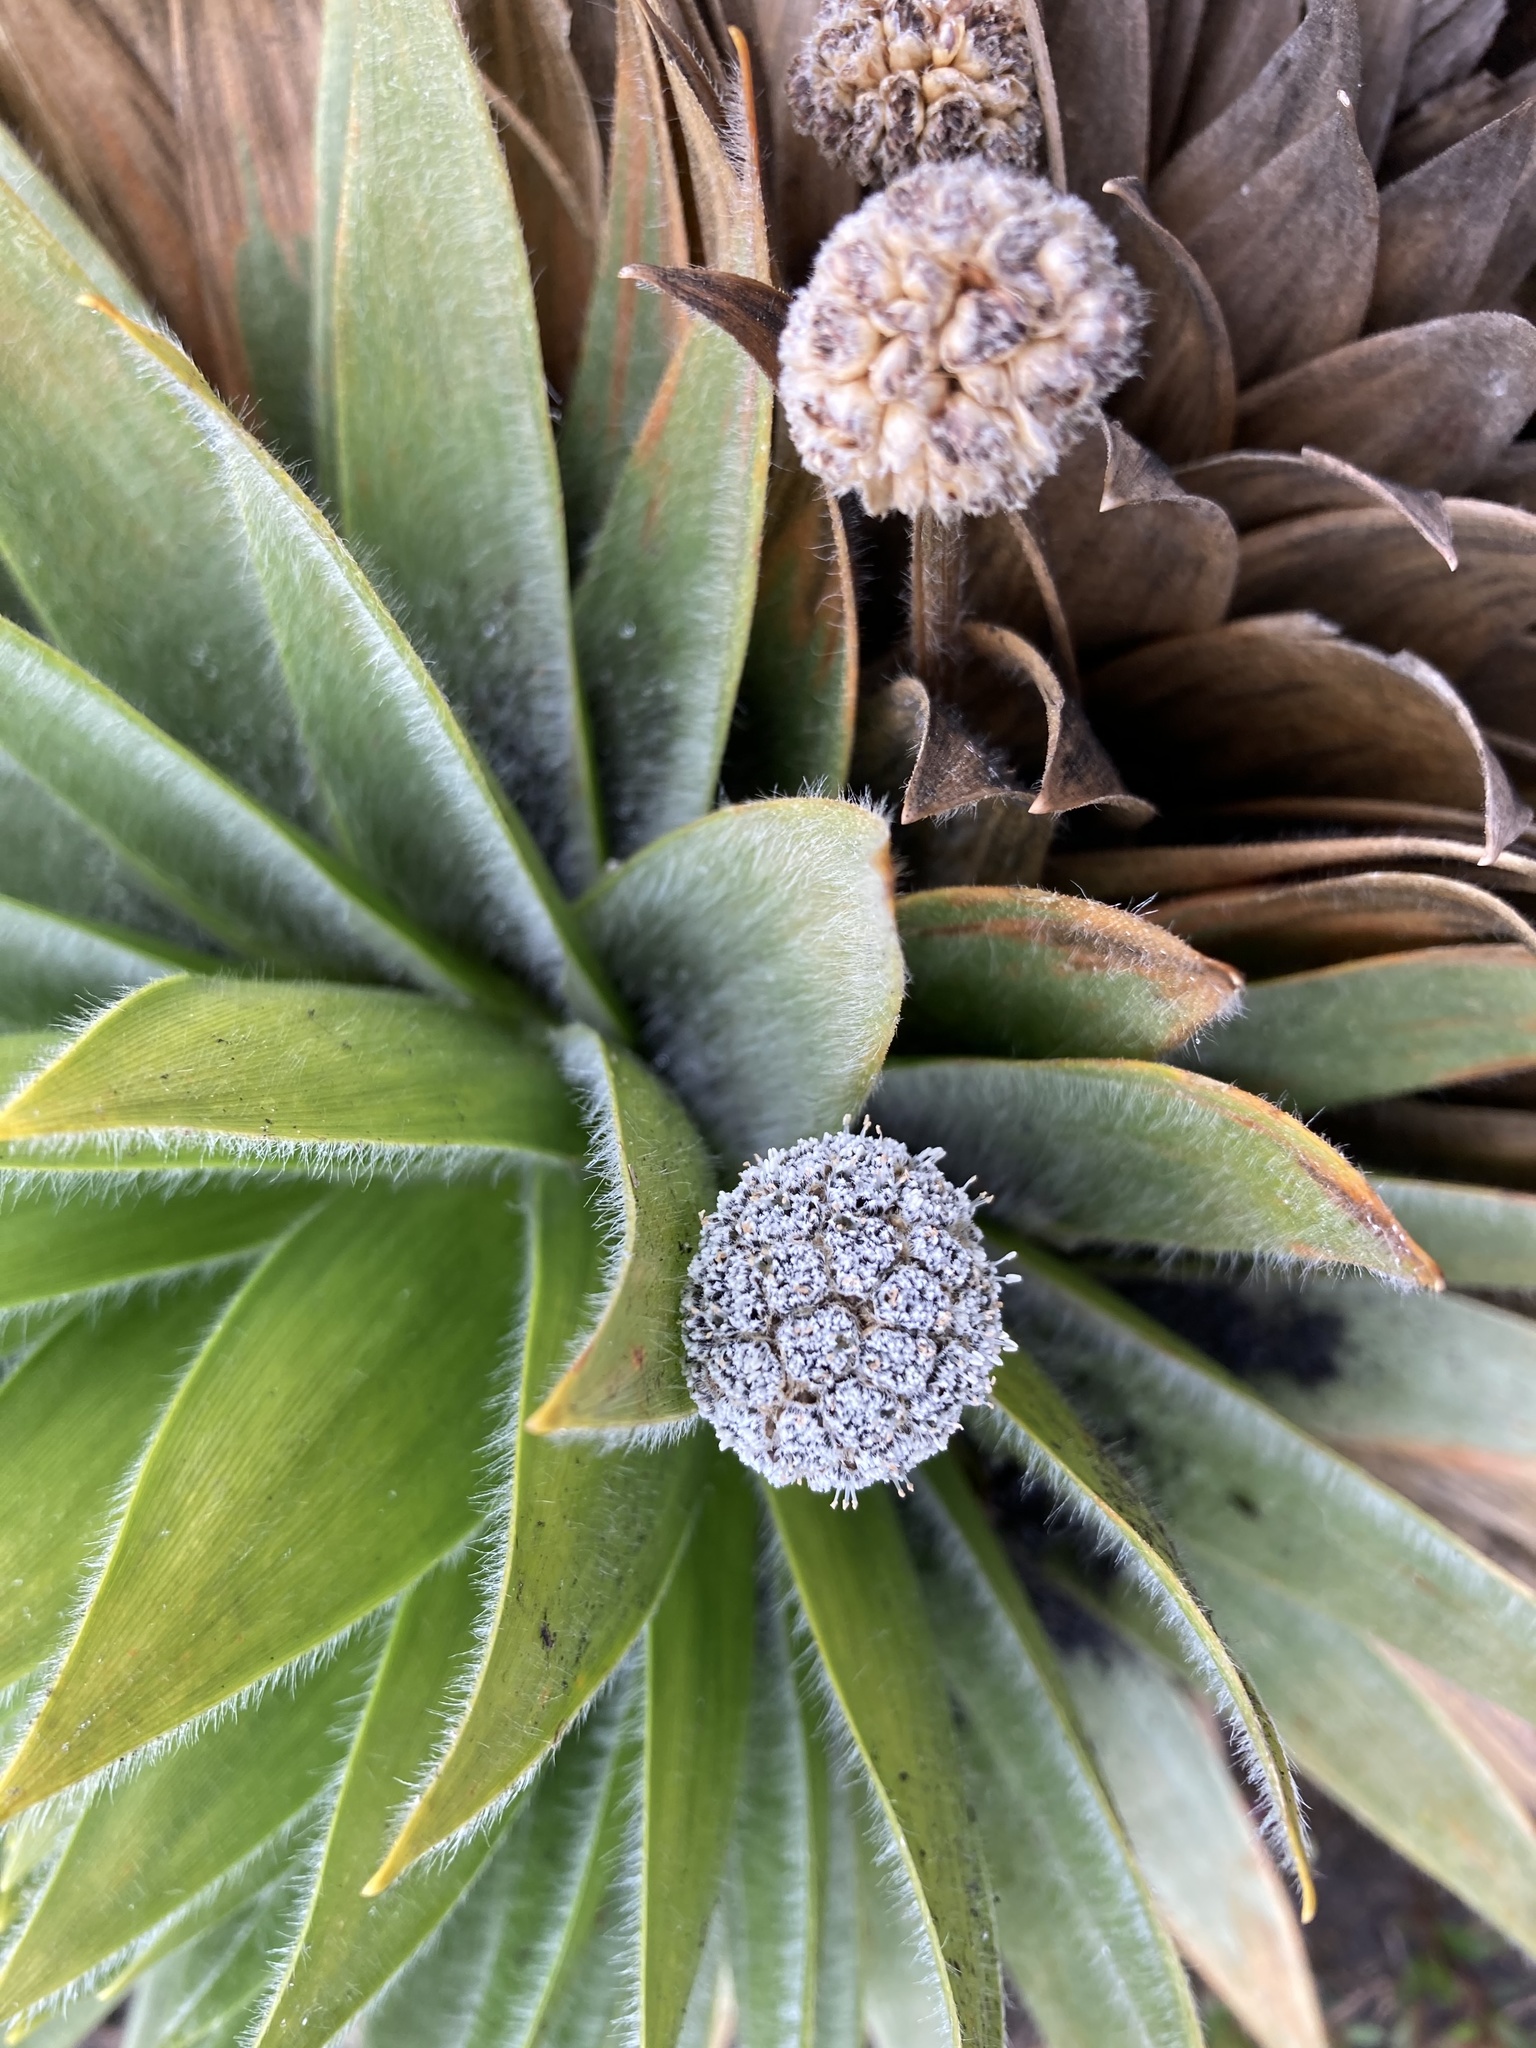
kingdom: Plantae
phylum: Tracheophyta
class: Liliopsida
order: Poales
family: Eriocaulaceae
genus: Paepalanthus
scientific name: Paepalanthus alpinus
